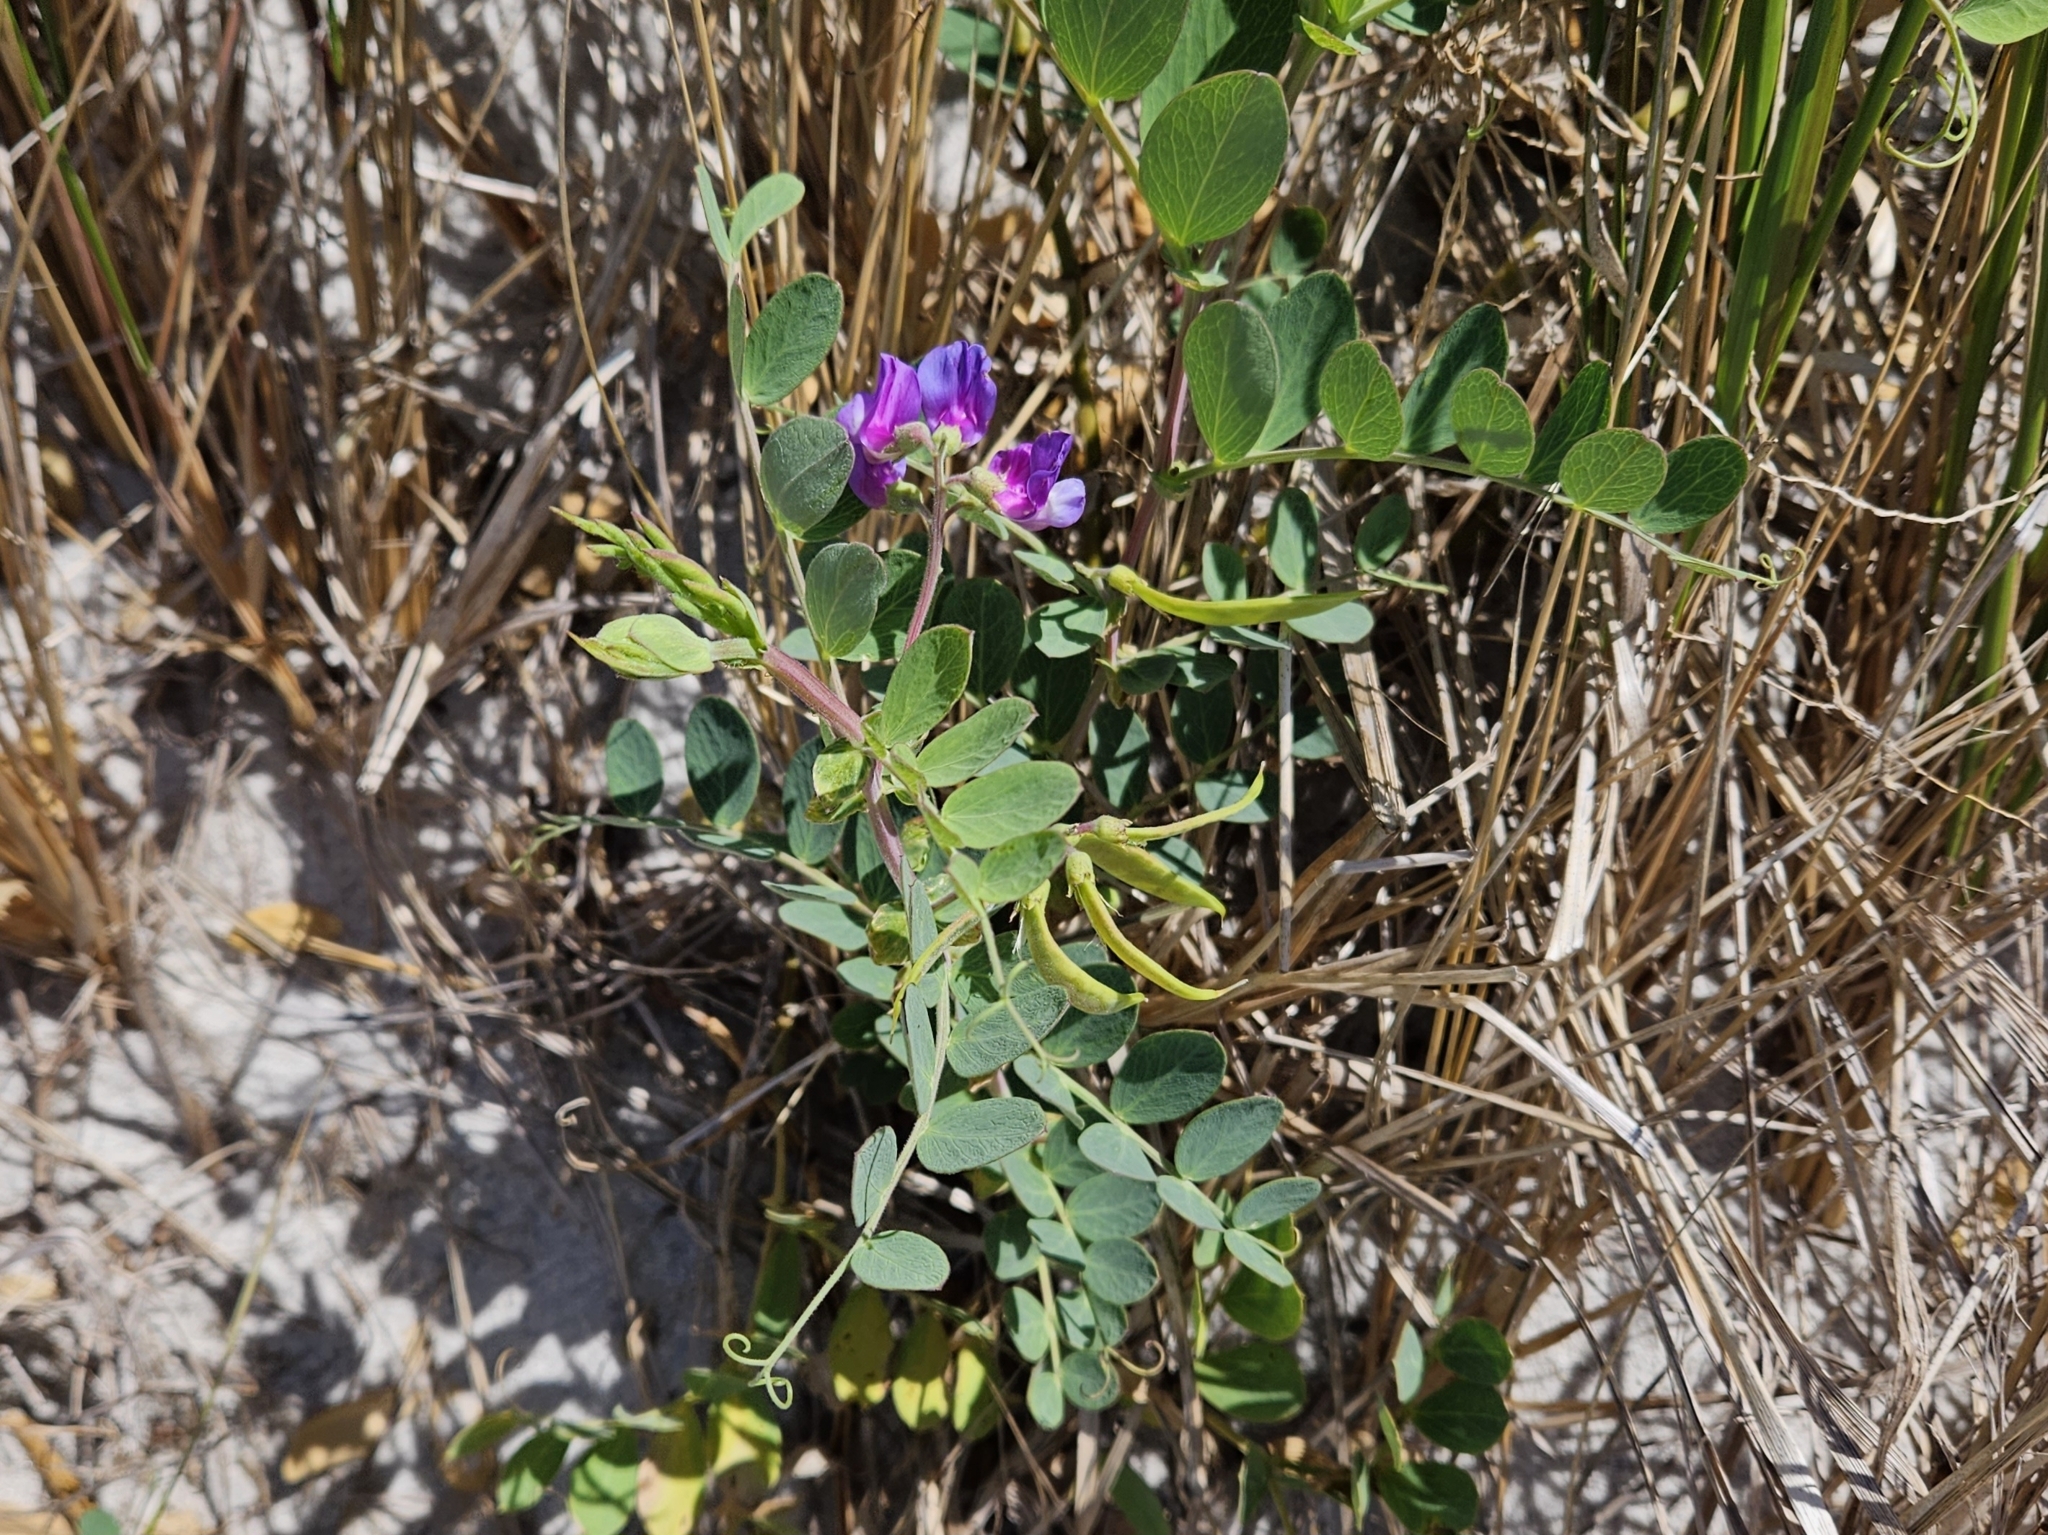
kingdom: Plantae
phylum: Tracheophyta
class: Magnoliopsida
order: Fabales
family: Fabaceae
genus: Lathyrus
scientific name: Lathyrus japonicus
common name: Sea pea
